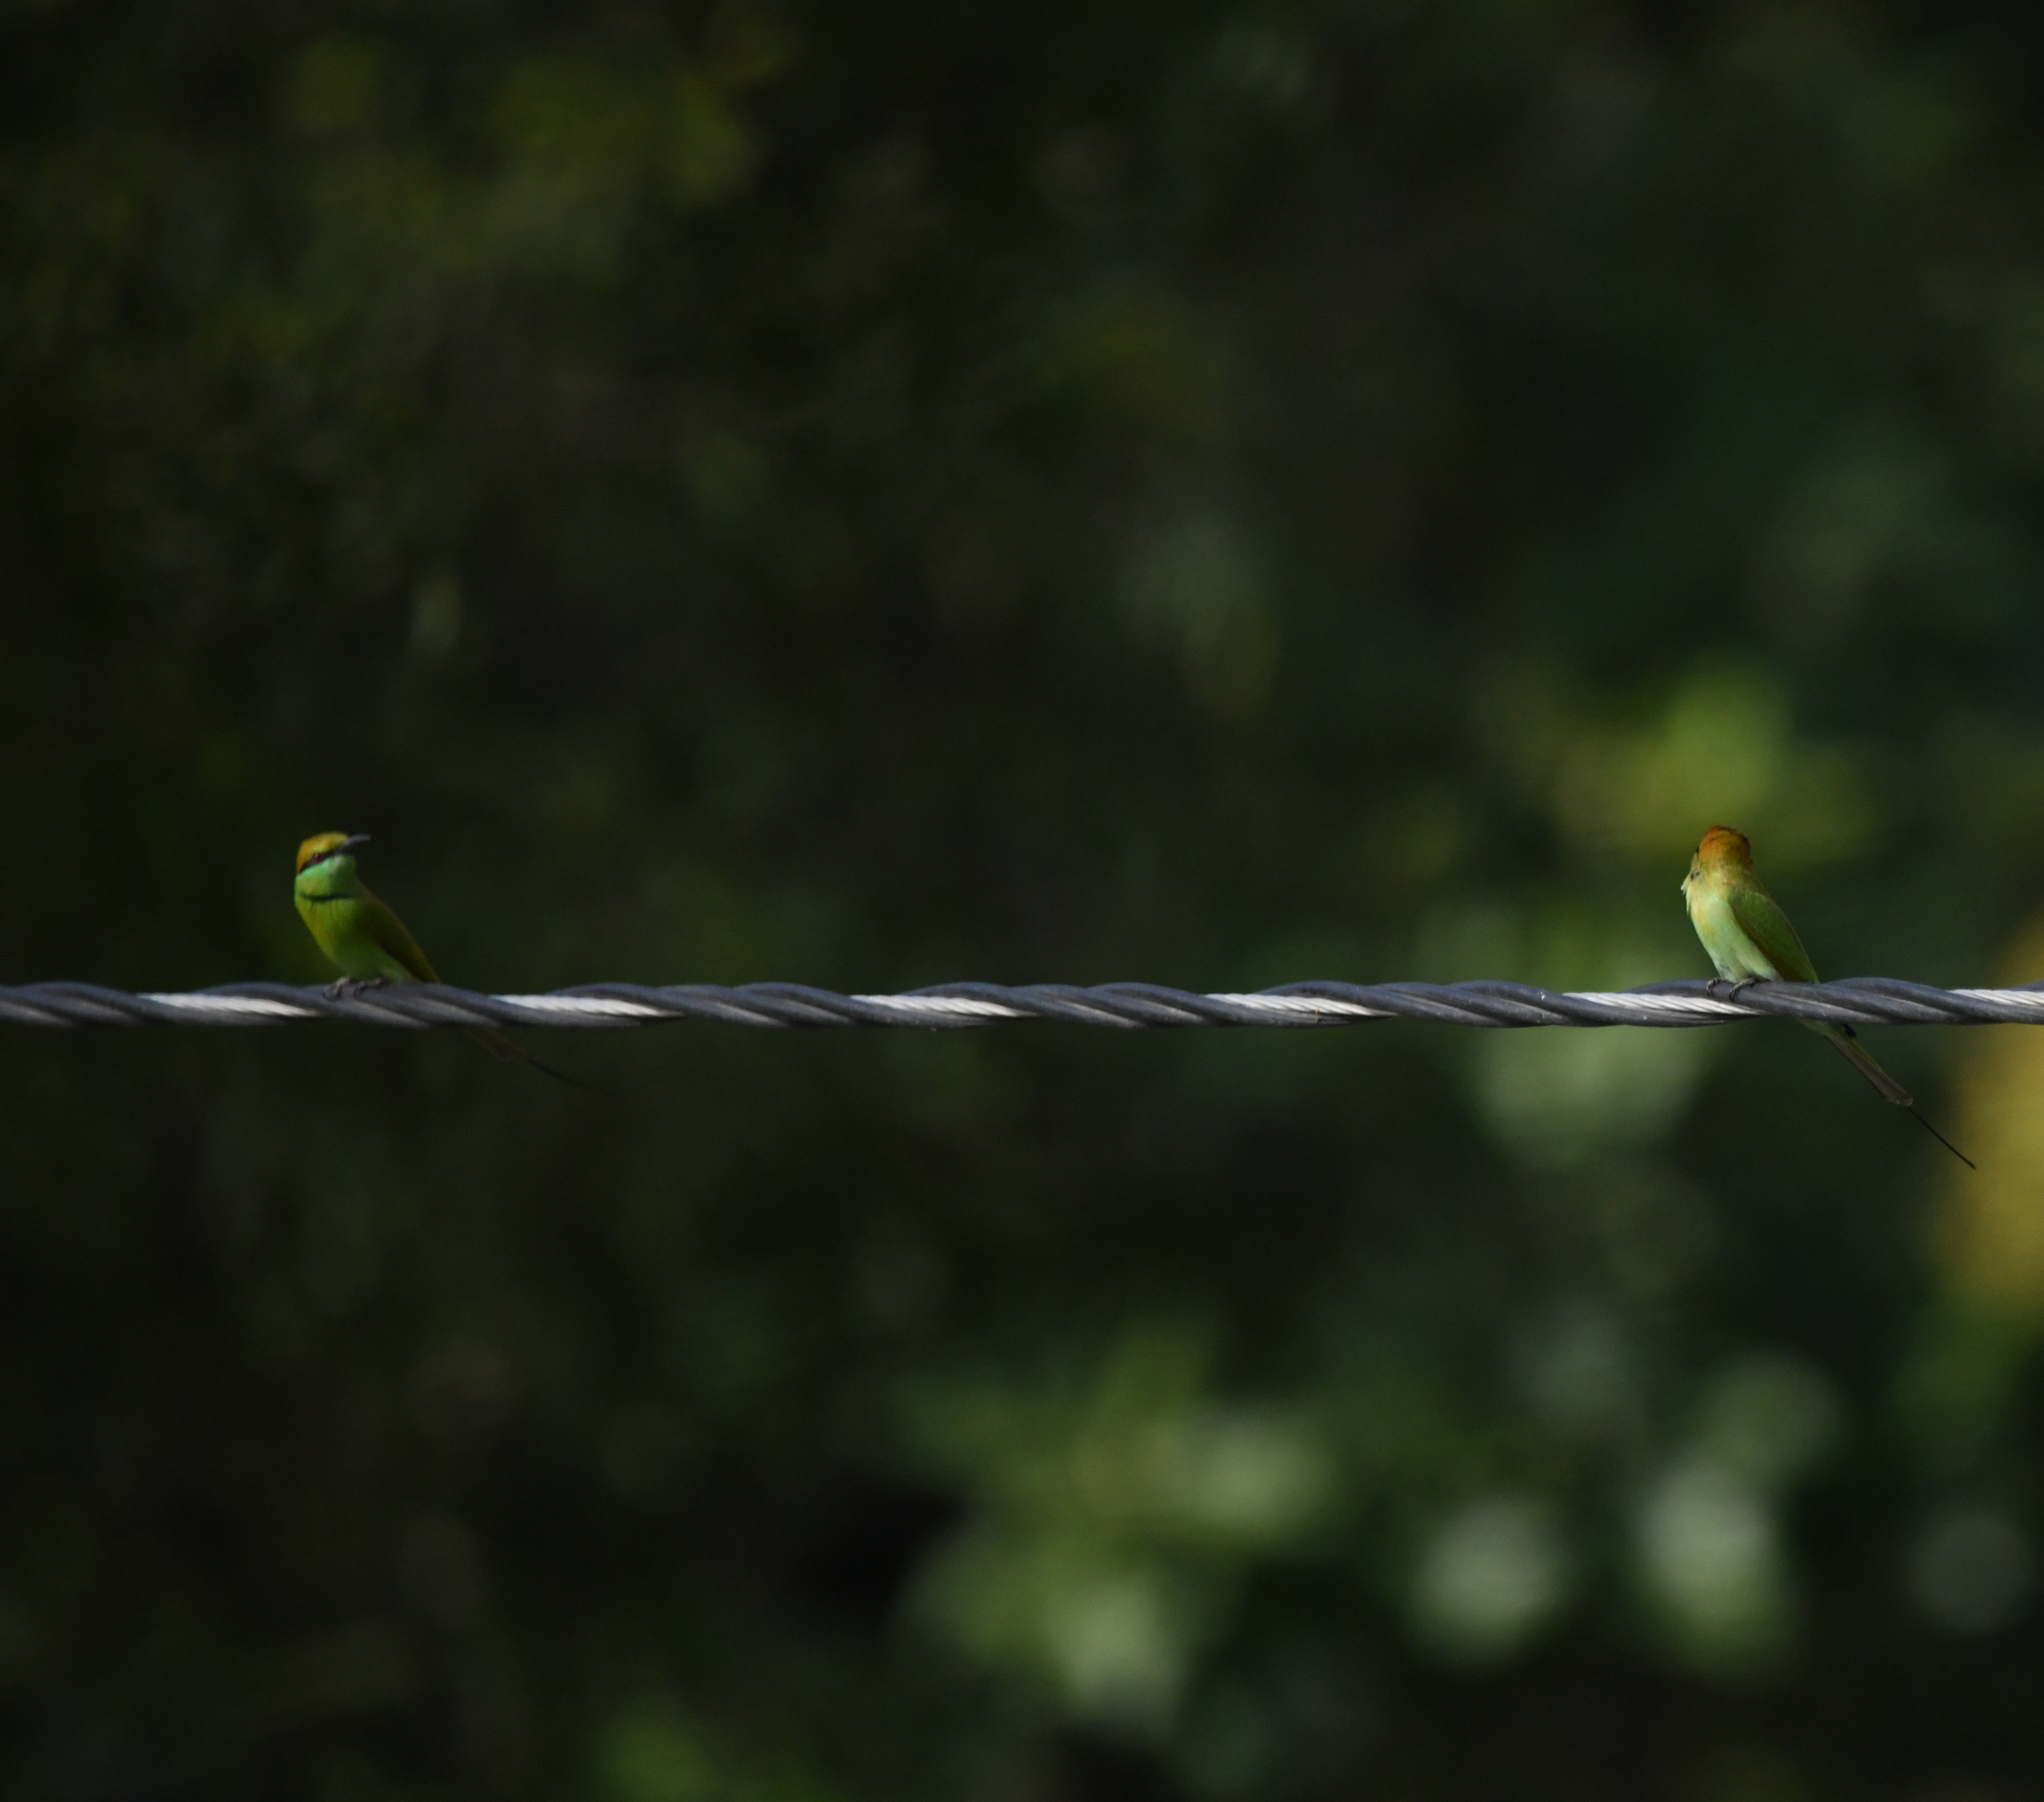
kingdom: Animalia
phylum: Chordata
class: Aves
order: Coraciiformes
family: Meropidae
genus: Merops
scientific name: Merops orientalis
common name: Green bee-eater
